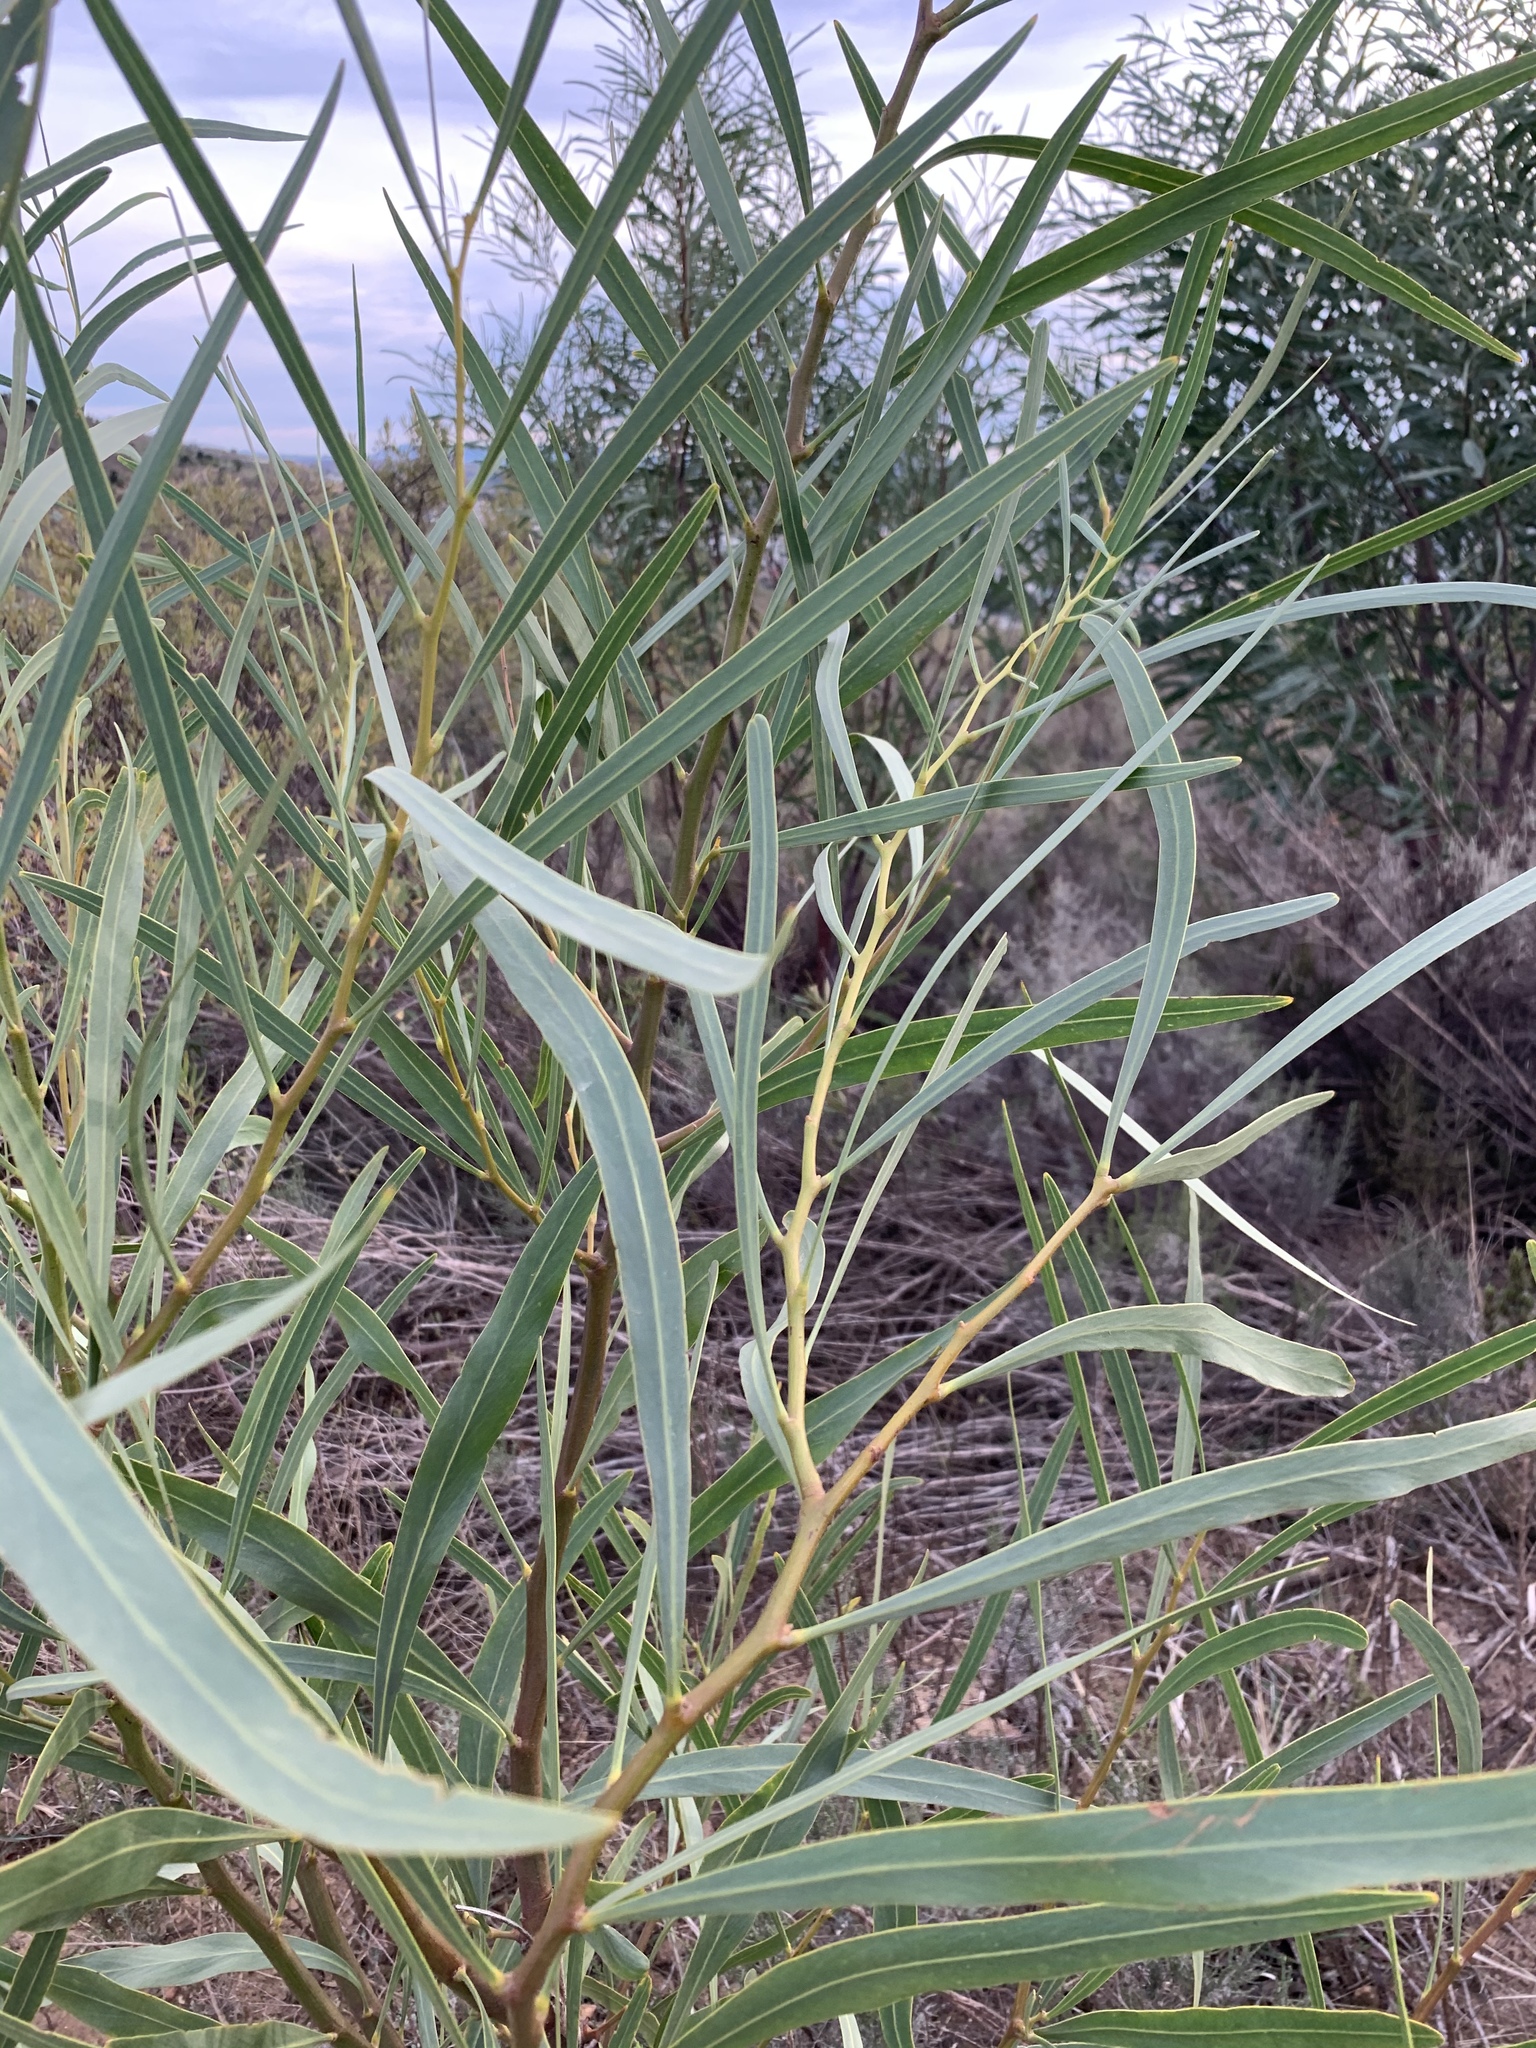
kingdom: Plantae
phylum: Tracheophyta
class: Magnoliopsida
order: Fabales
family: Fabaceae
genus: Acacia
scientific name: Acacia saligna
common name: Orange wattle
